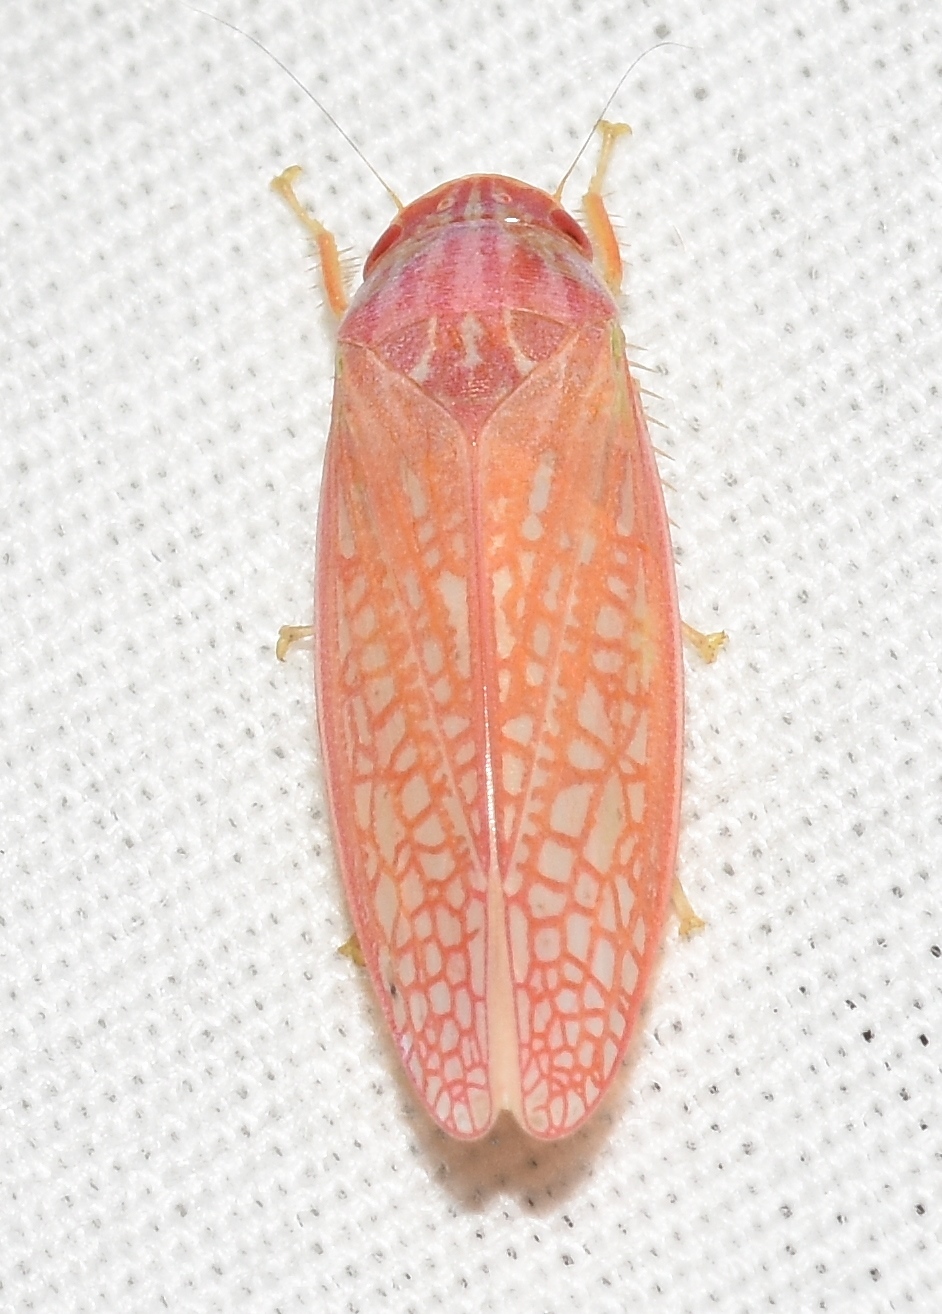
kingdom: Animalia
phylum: Arthropoda
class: Insecta
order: Hemiptera
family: Cicadellidae
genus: Gyponana
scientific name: Gyponana gladia
